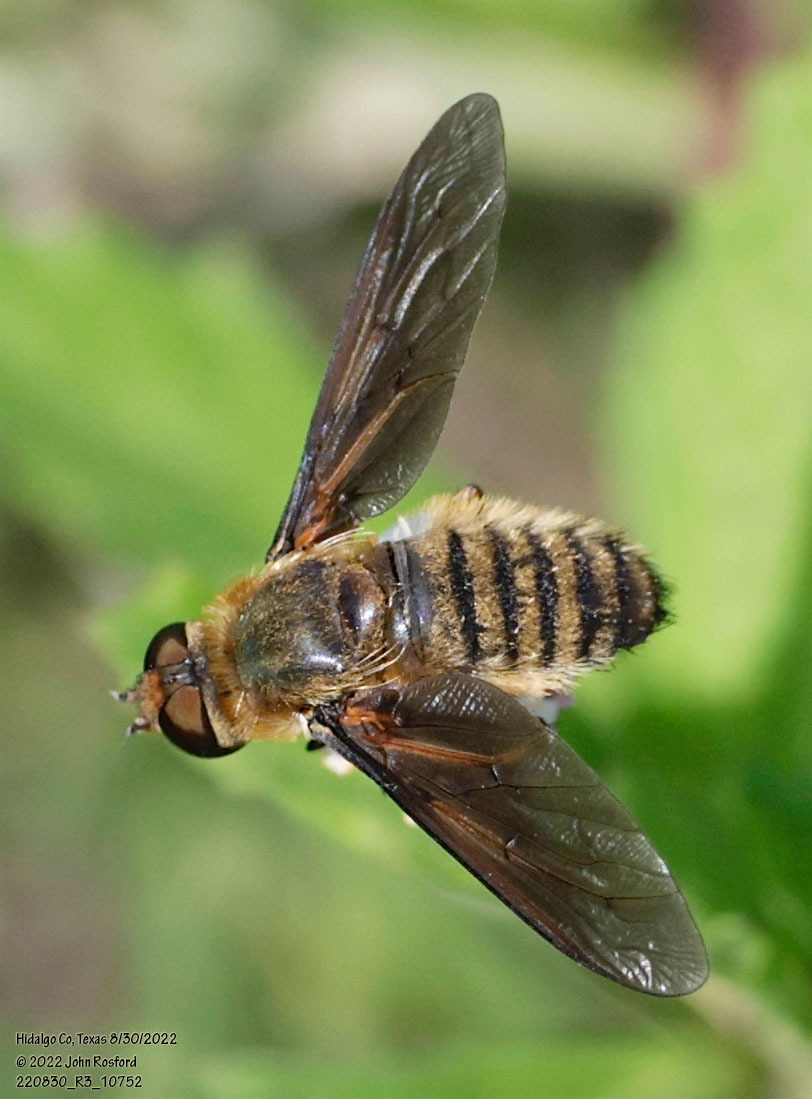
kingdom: Animalia
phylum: Arthropoda
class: Insecta
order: Diptera
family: Bombyliidae
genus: Poecilanthrax
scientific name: Poecilanthrax lucifer
